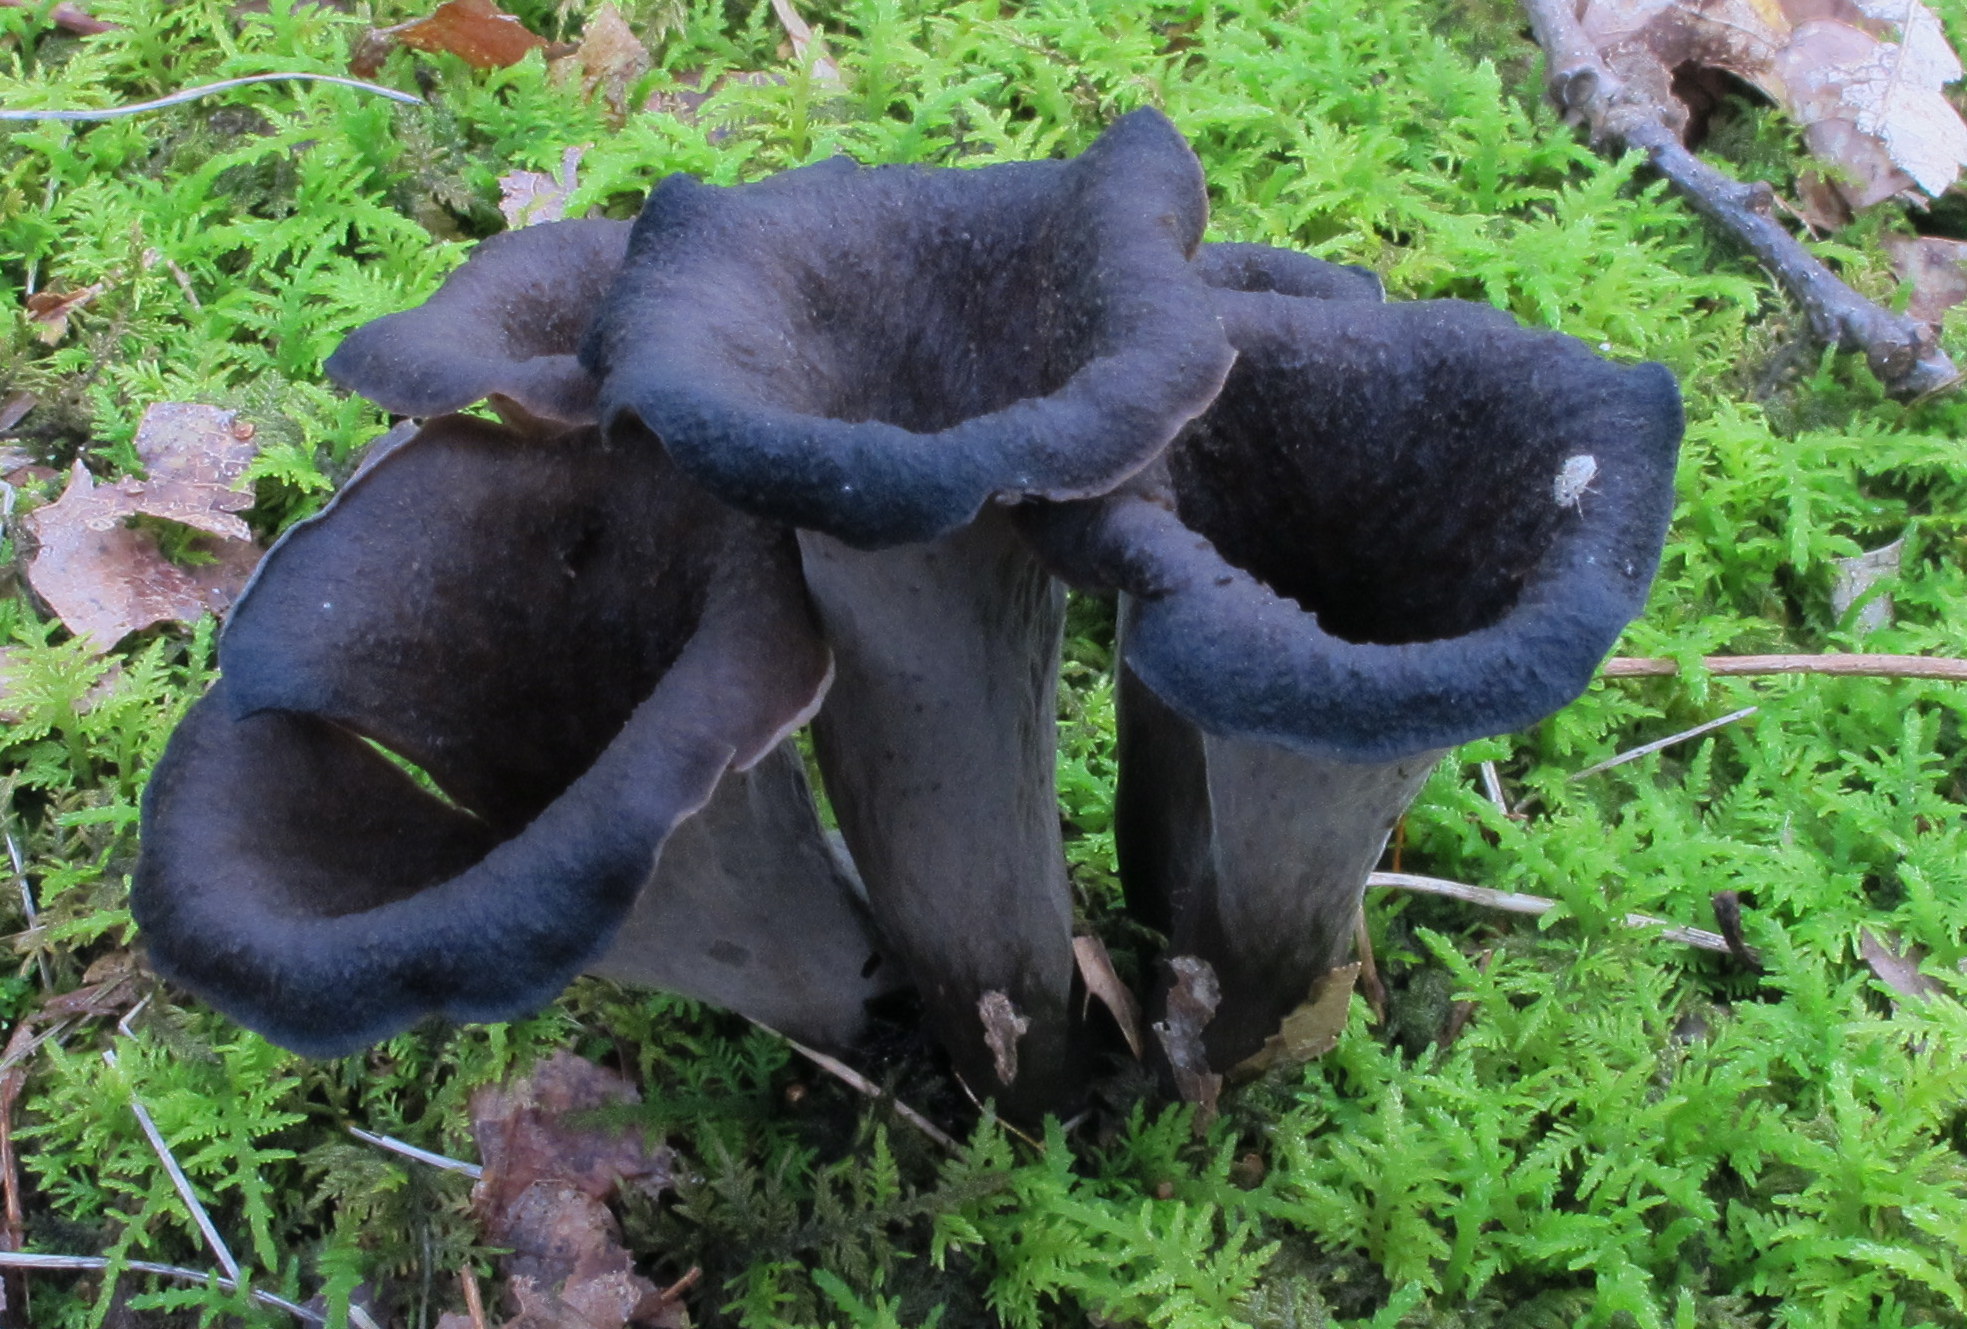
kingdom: Fungi
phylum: Basidiomycota
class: Agaricomycetes
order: Cantharellales
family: Hydnaceae
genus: Craterellus
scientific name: Craterellus cornucopioides
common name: Horn of plenty
